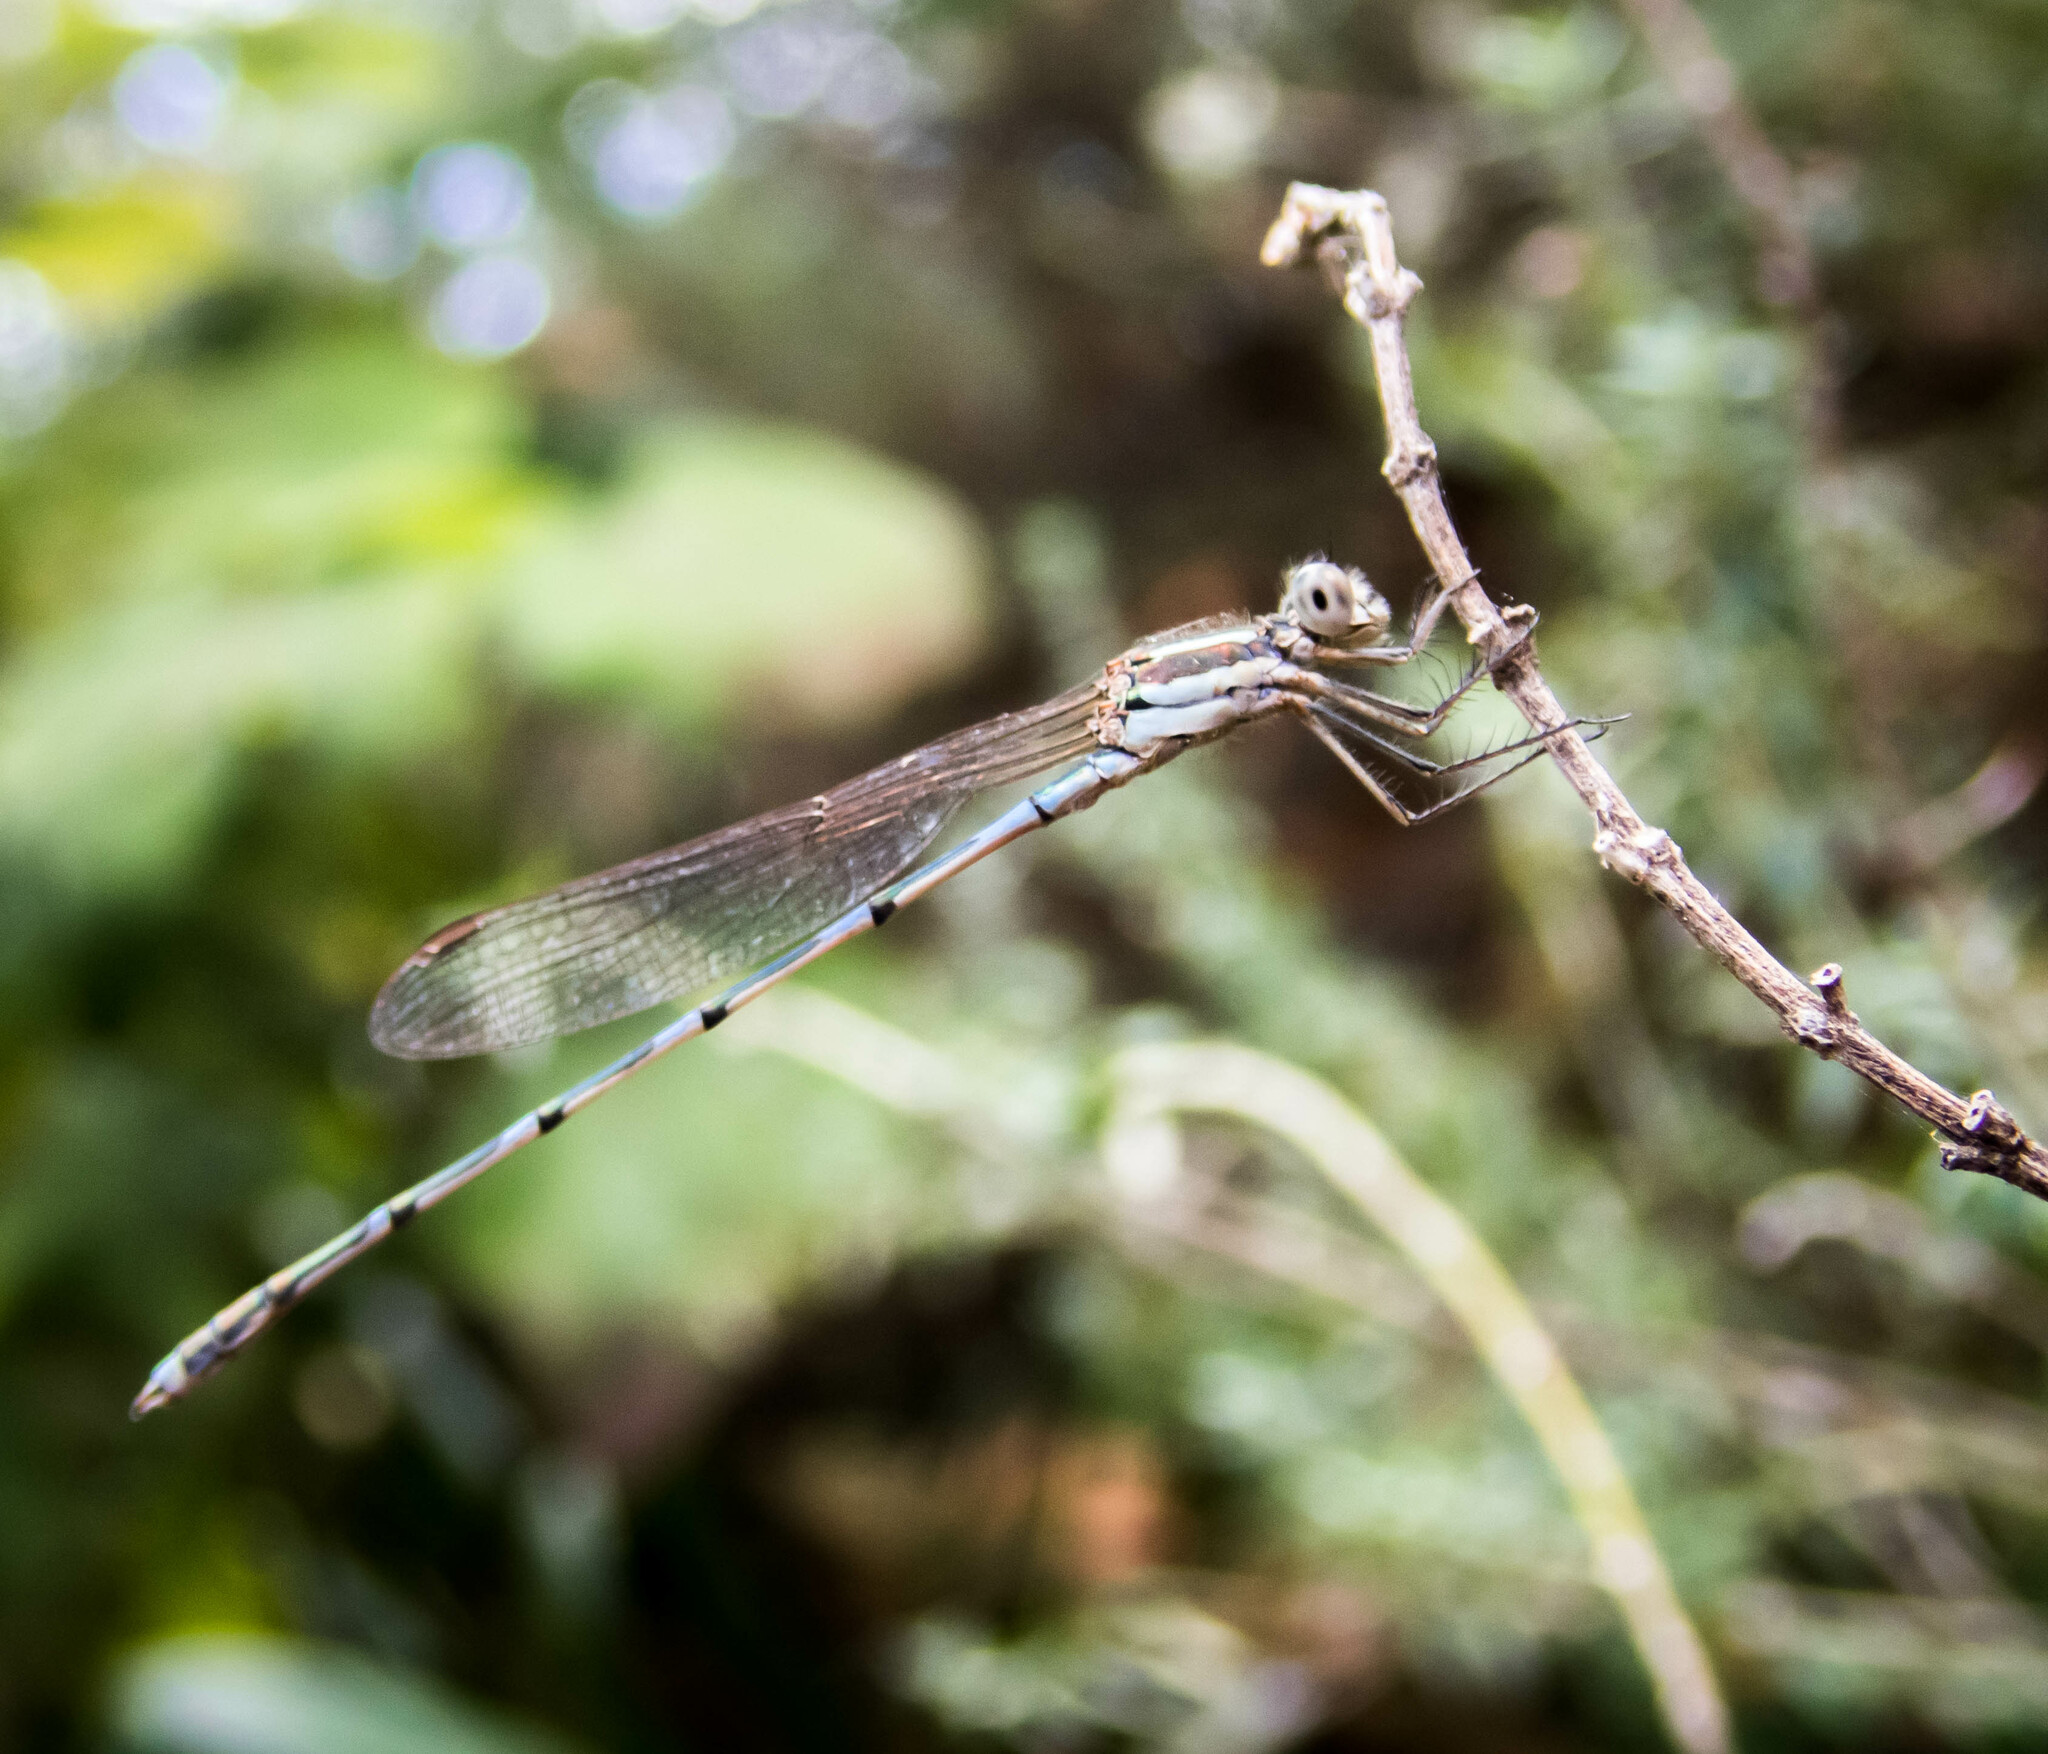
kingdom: Animalia
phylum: Arthropoda
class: Insecta
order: Odonata
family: Lestidae
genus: Austrolestes
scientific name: Austrolestes leda
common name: Wandering ringtail
